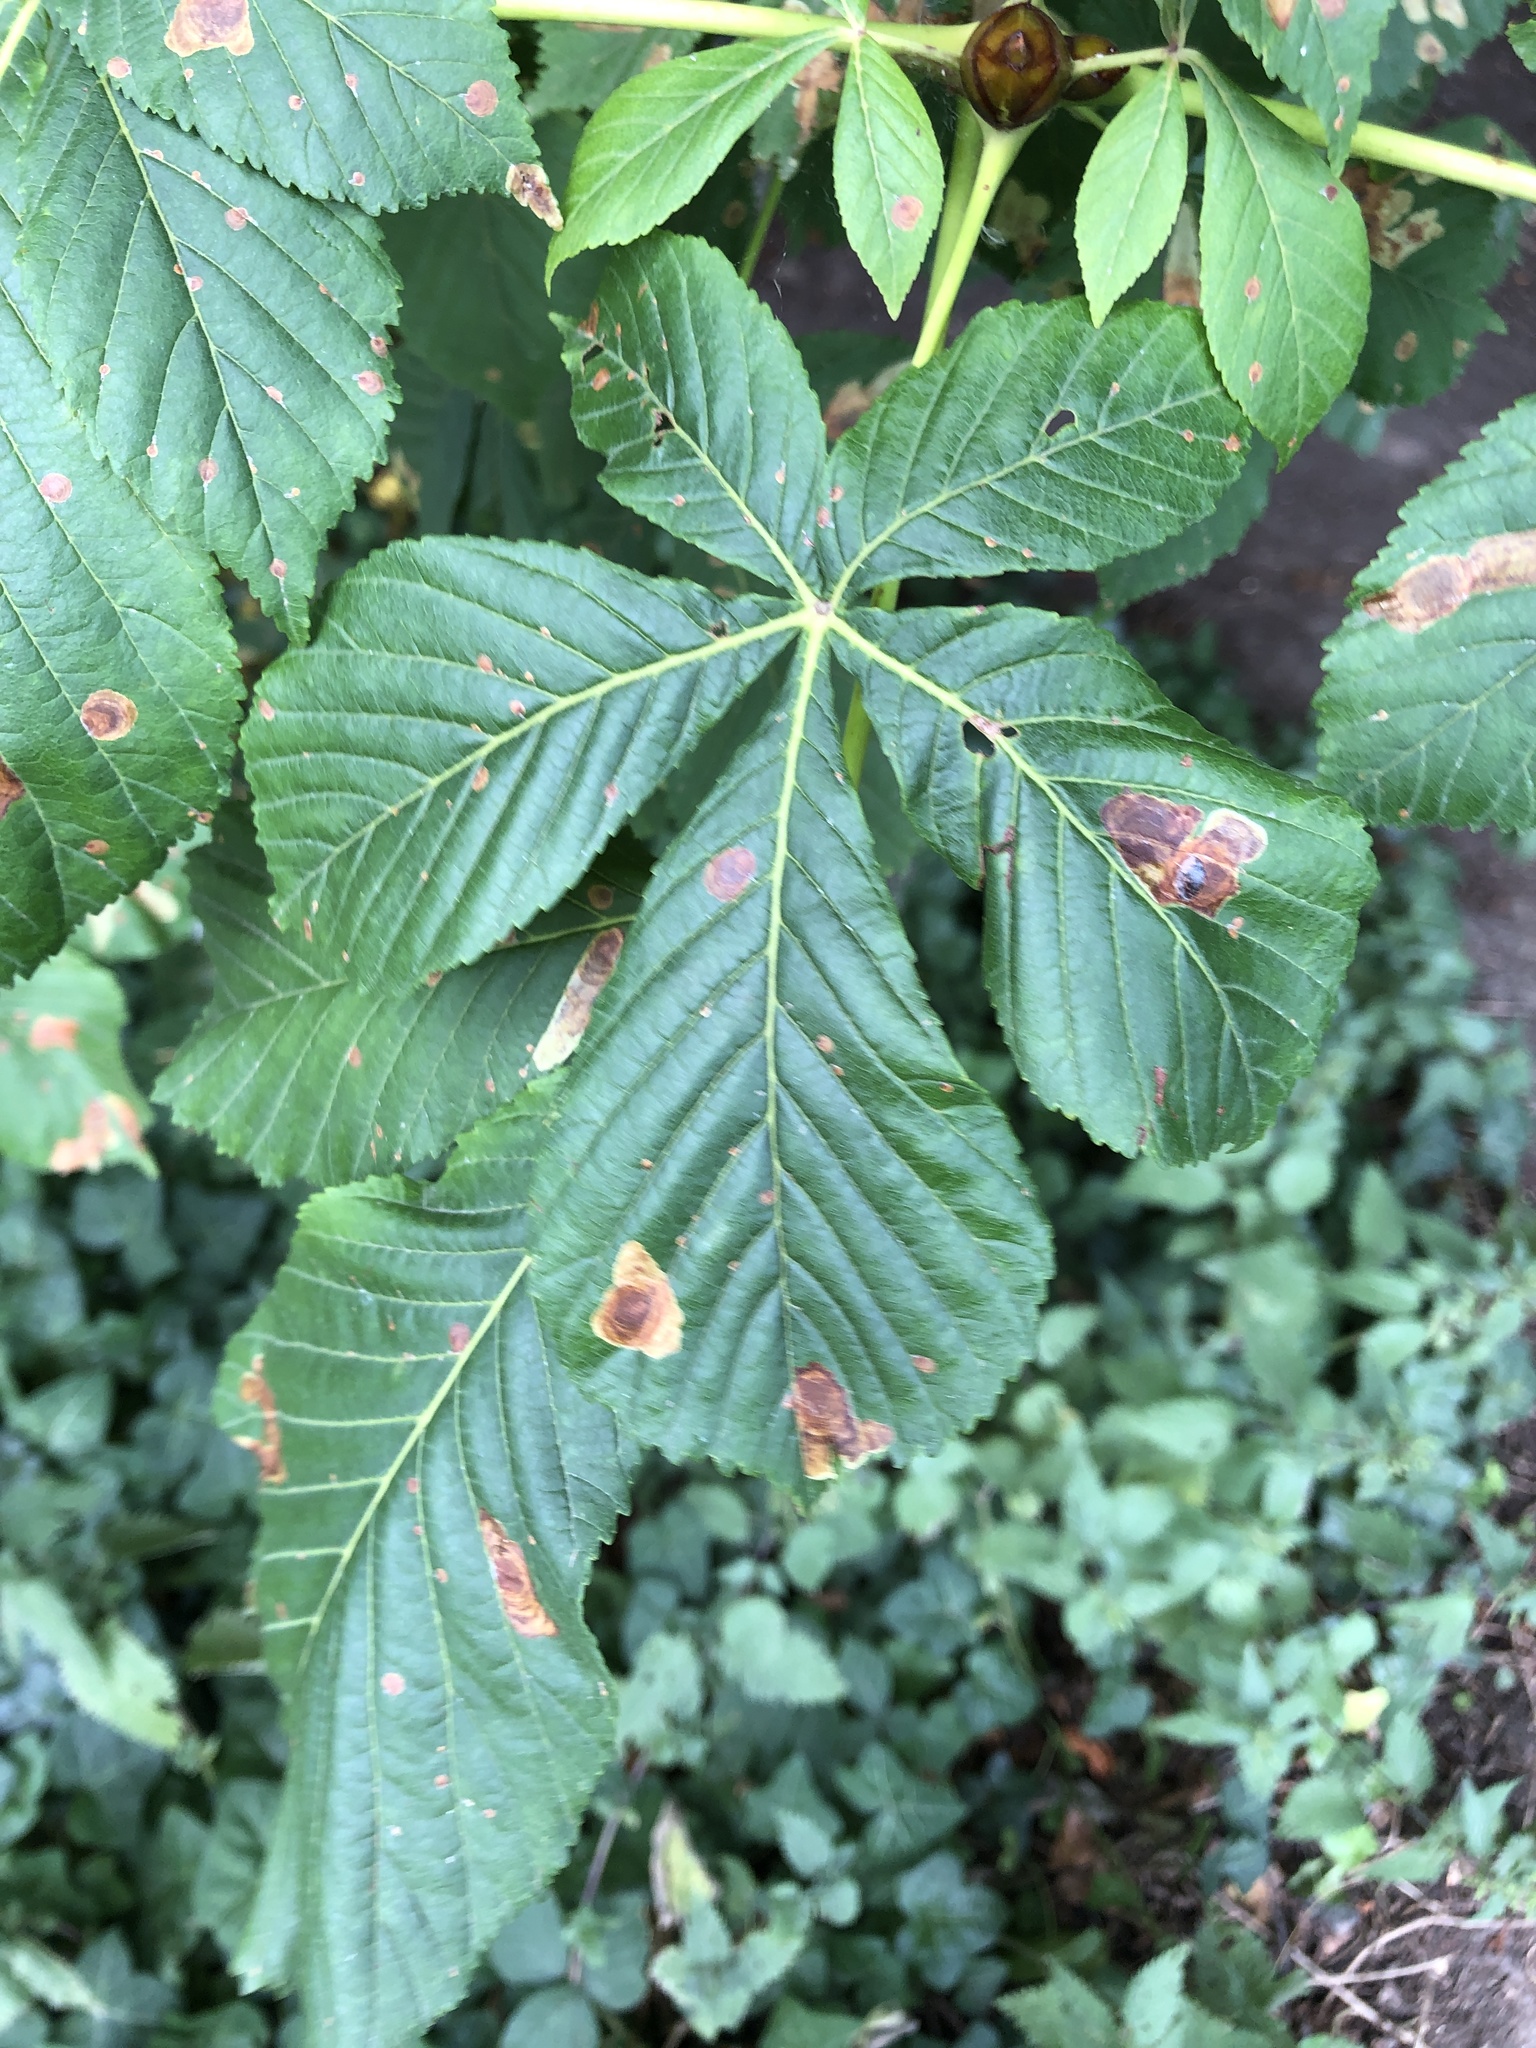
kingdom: Animalia
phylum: Arthropoda
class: Insecta
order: Lepidoptera
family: Gracillariidae
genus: Cameraria
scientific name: Cameraria ohridella
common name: Horse-chestnut leaf-miner
